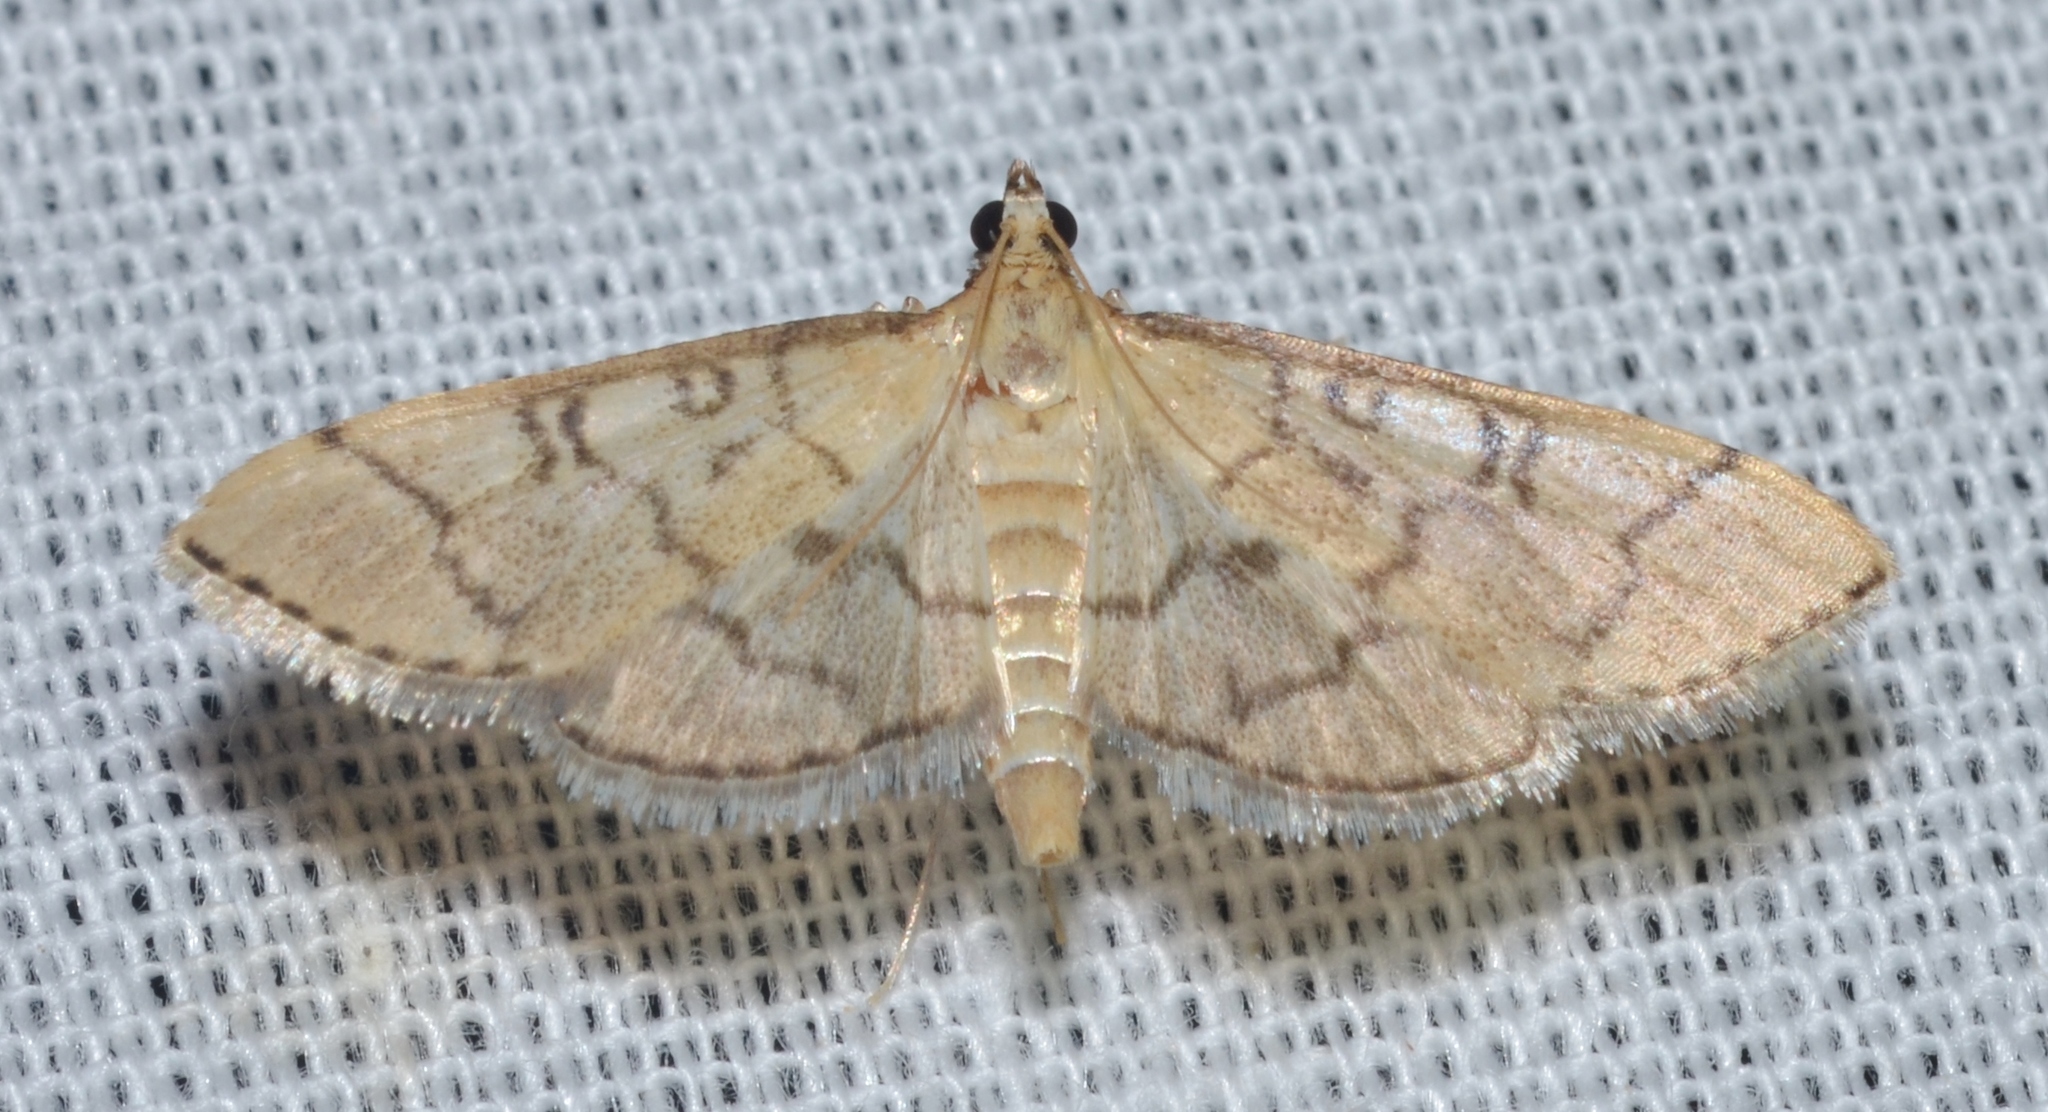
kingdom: Animalia
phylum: Arthropoda
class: Insecta
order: Lepidoptera
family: Crambidae
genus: Lamprosema
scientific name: Lamprosema Blepharomastix ranalis
